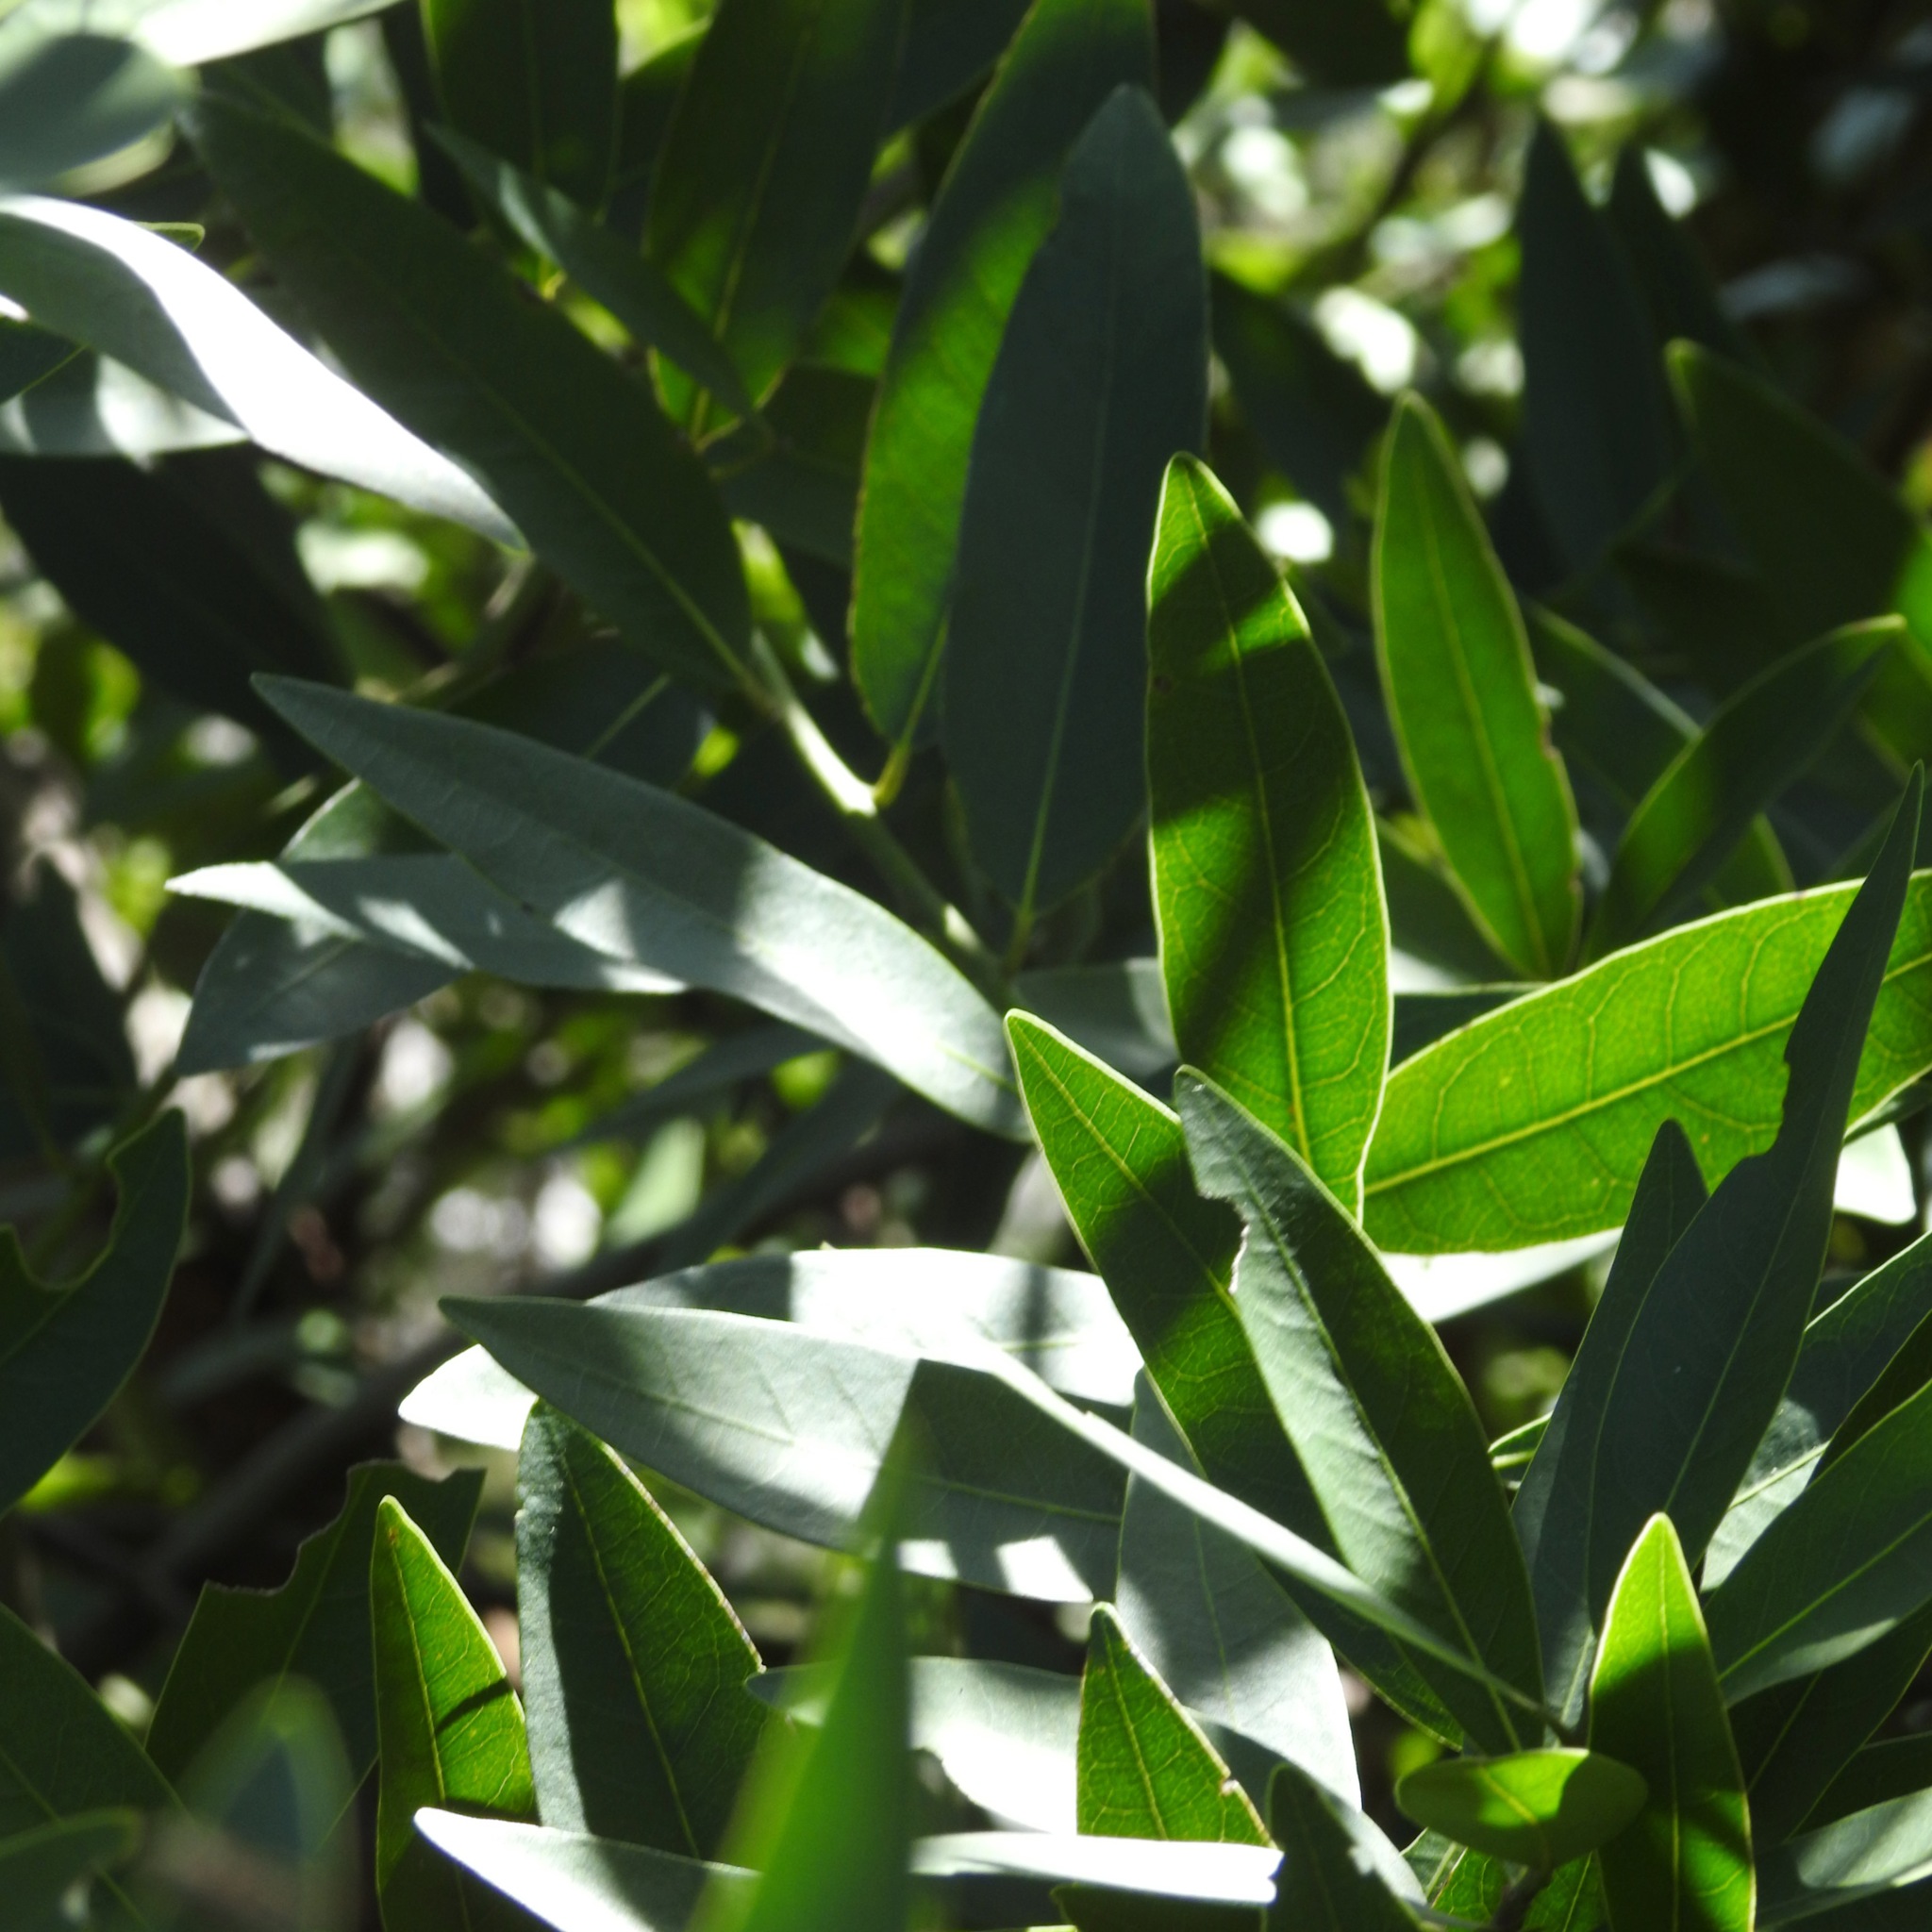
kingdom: Plantae
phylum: Tracheophyta
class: Magnoliopsida
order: Laurales
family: Lauraceae
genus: Umbellularia
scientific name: Umbellularia californica
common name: California bay
